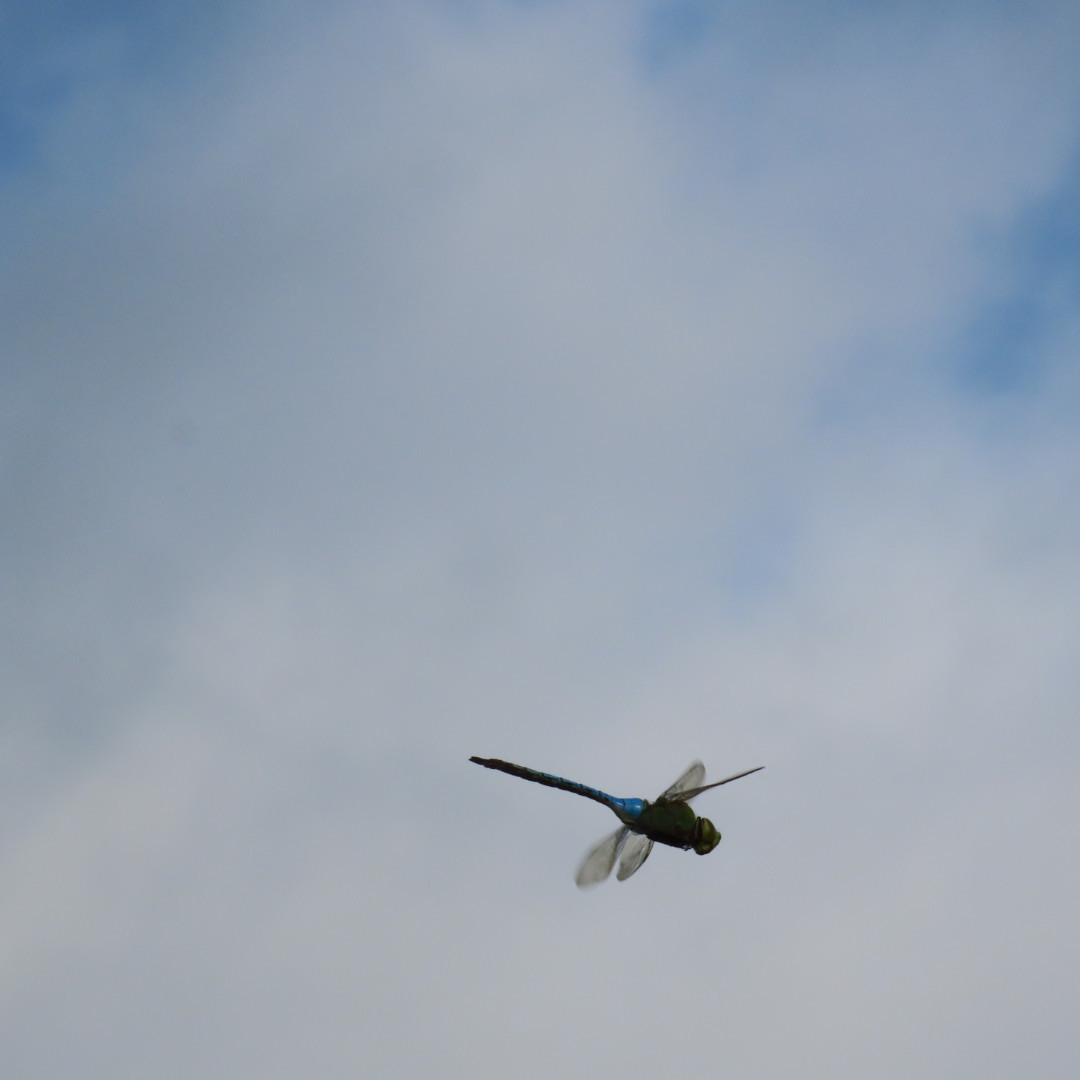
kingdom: Animalia
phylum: Arthropoda
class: Insecta
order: Odonata
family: Aeshnidae
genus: Anax
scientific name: Anax junius
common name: Common green darner
